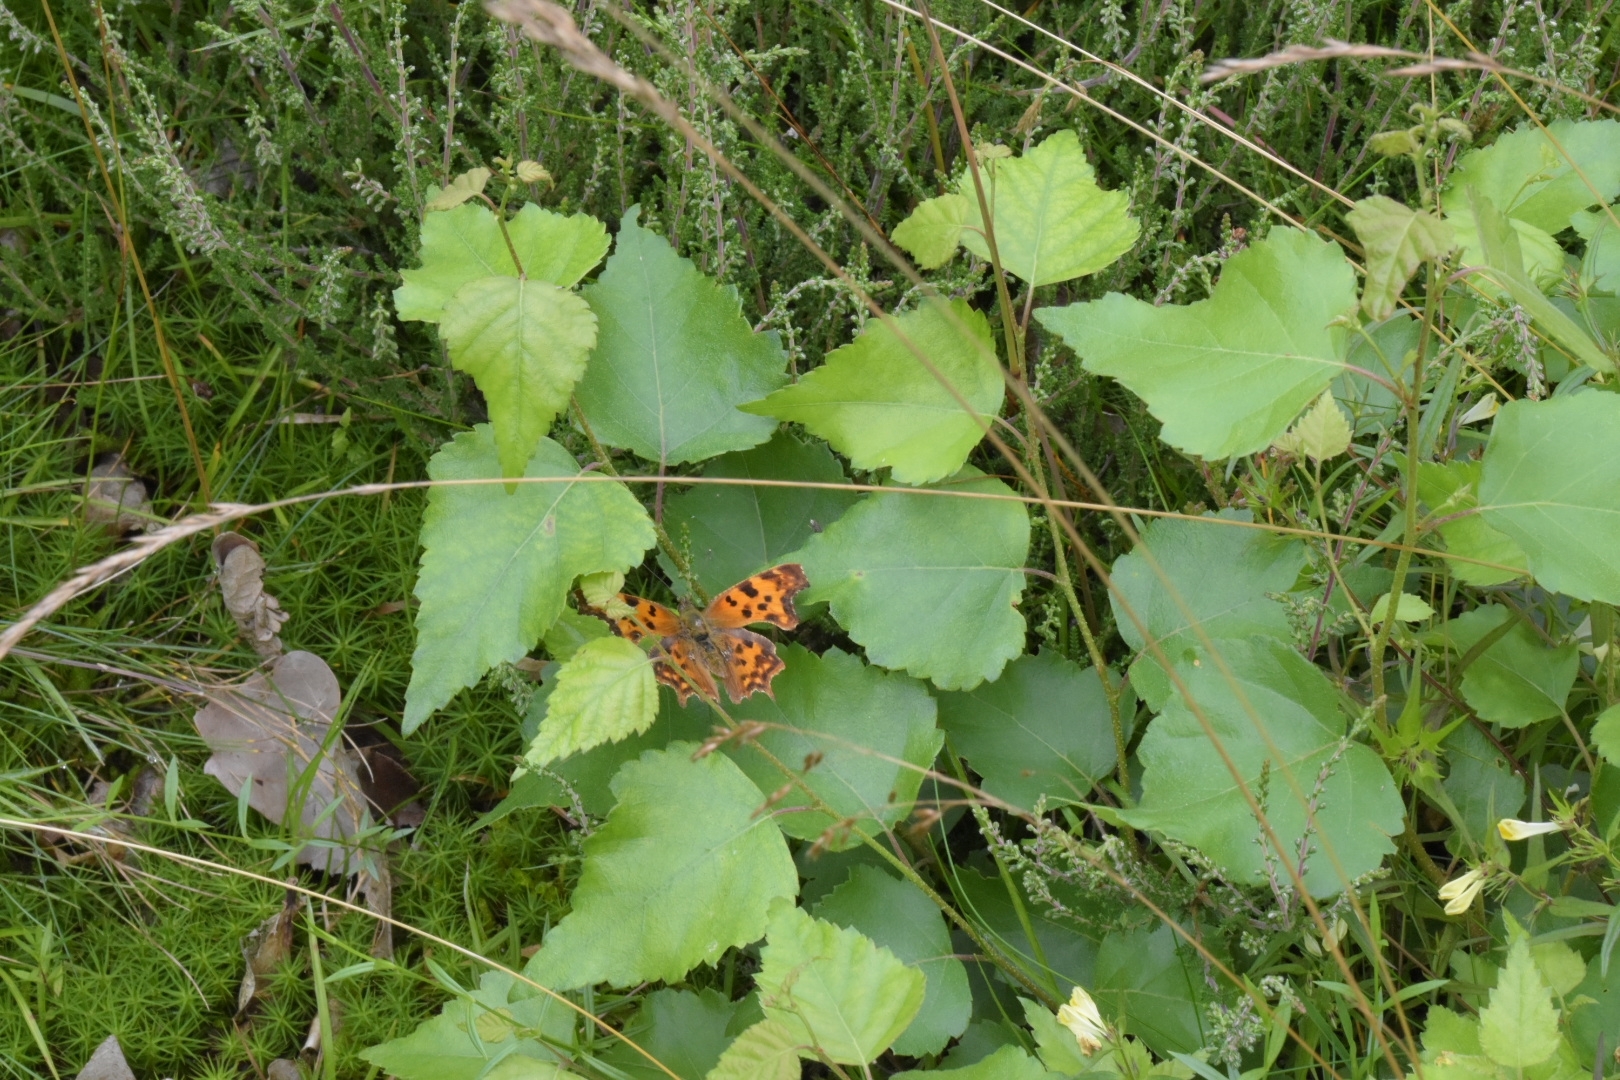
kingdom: Animalia
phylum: Arthropoda
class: Insecta
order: Lepidoptera
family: Nymphalidae
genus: Polygonia
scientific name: Polygonia c-album
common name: Comma
